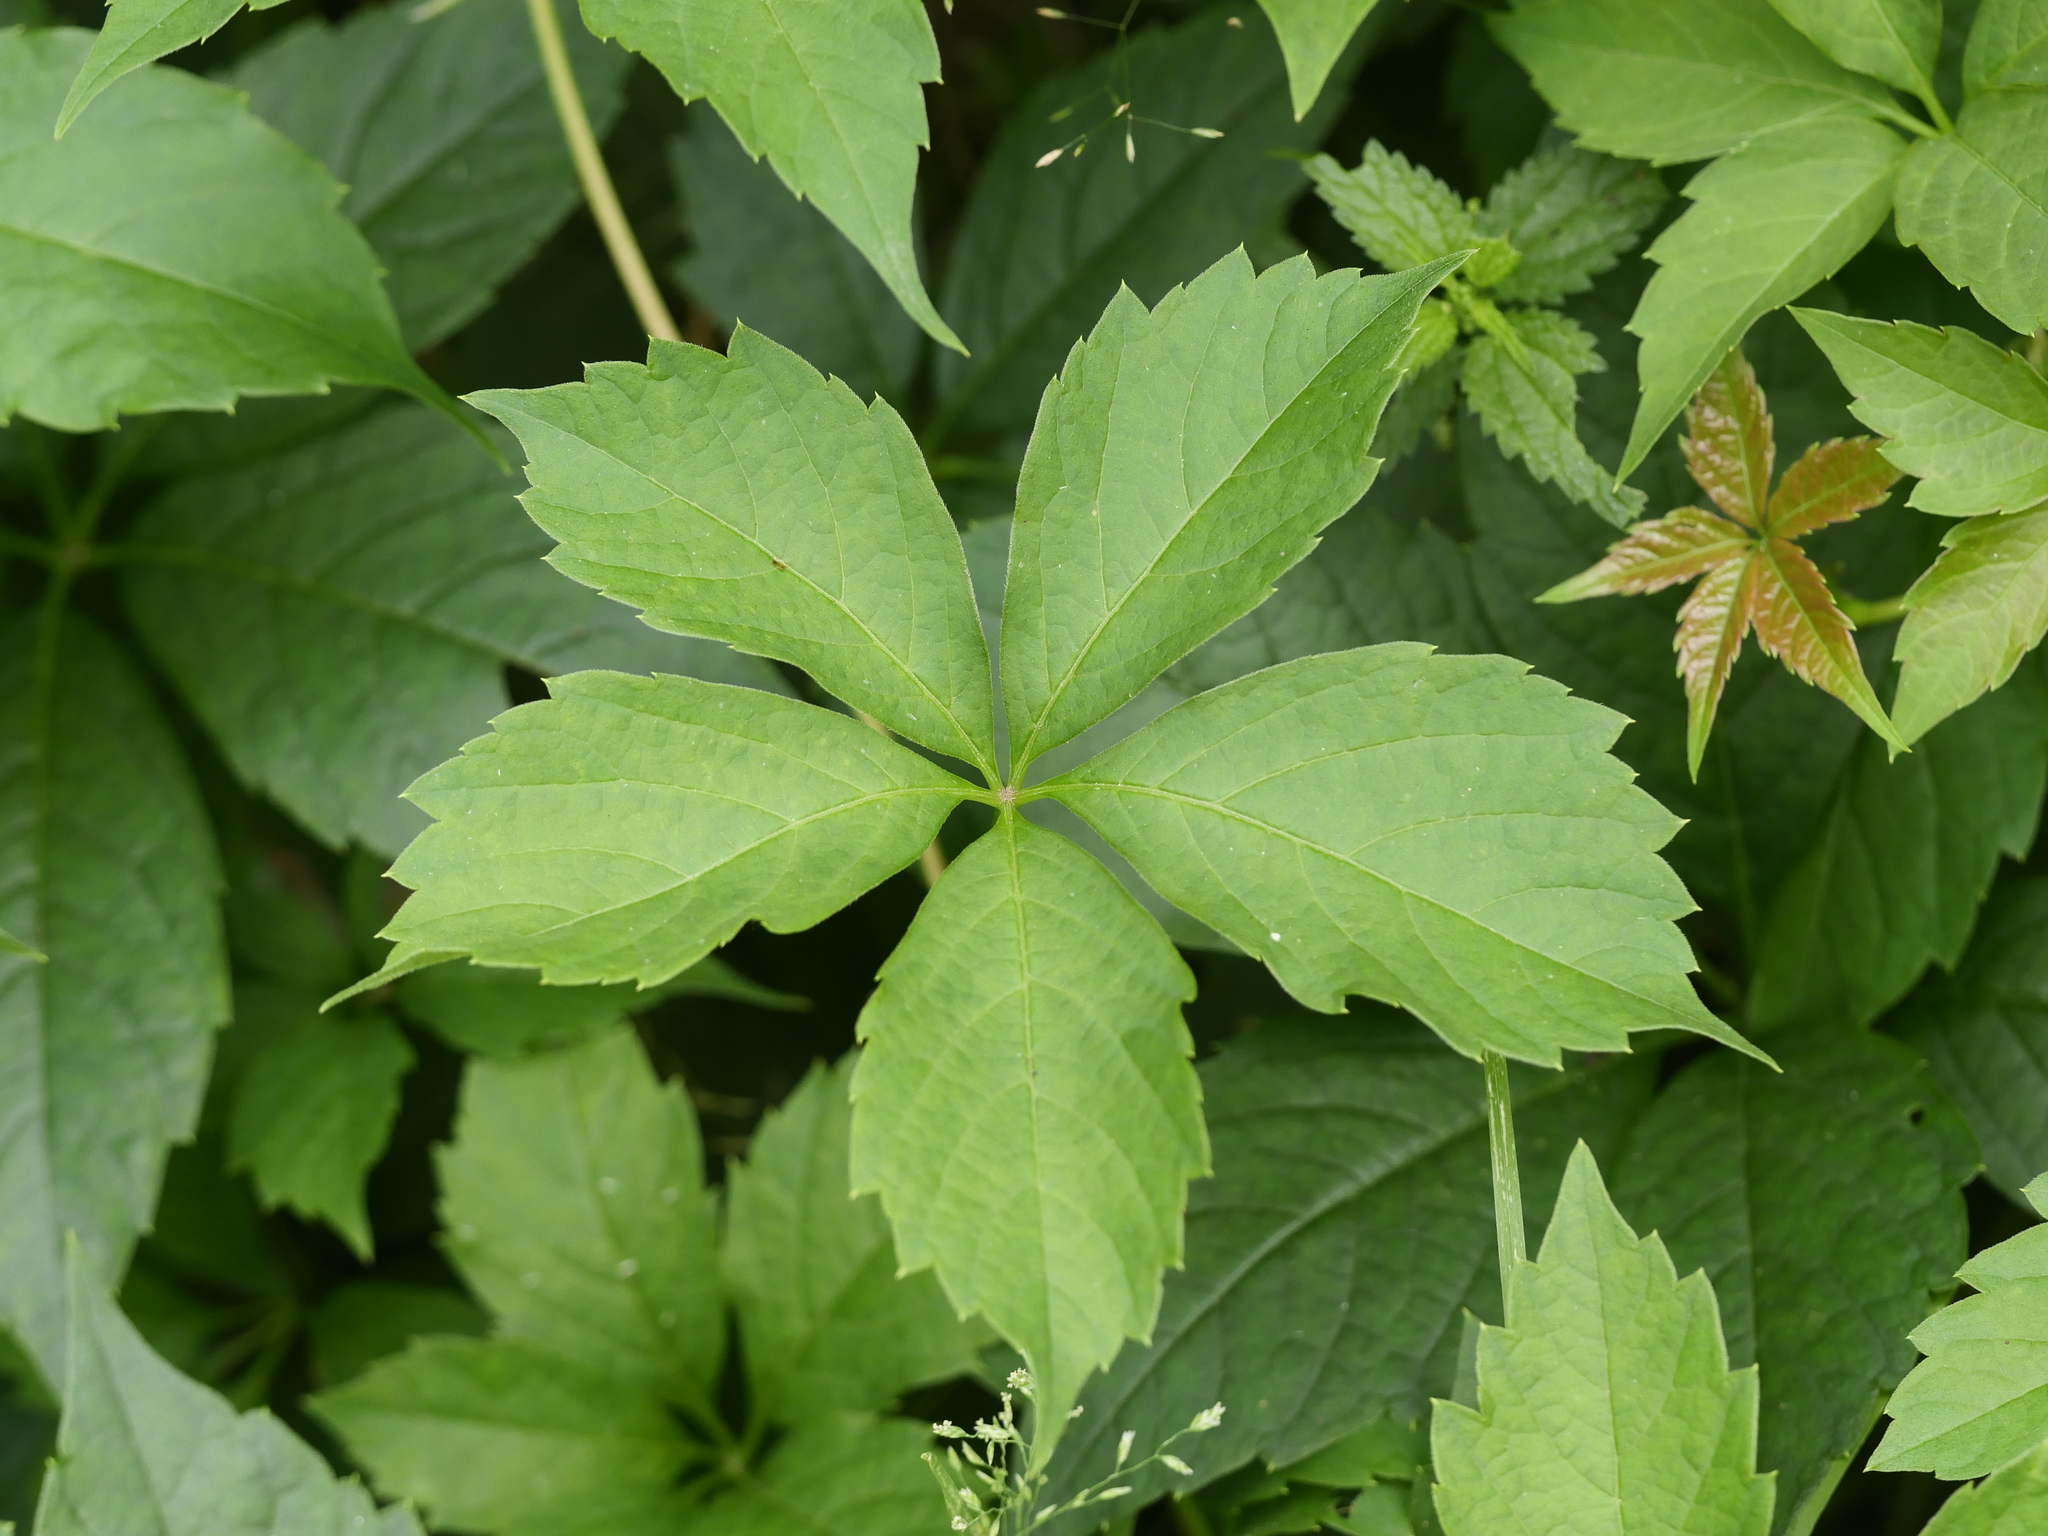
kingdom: Plantae
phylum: Tracheophyta
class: Magnoliopsida
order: Vitales
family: Vitaceae
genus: Parthenocissus
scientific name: Parthenocissus quinquefolia
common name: Virginia-creeper
